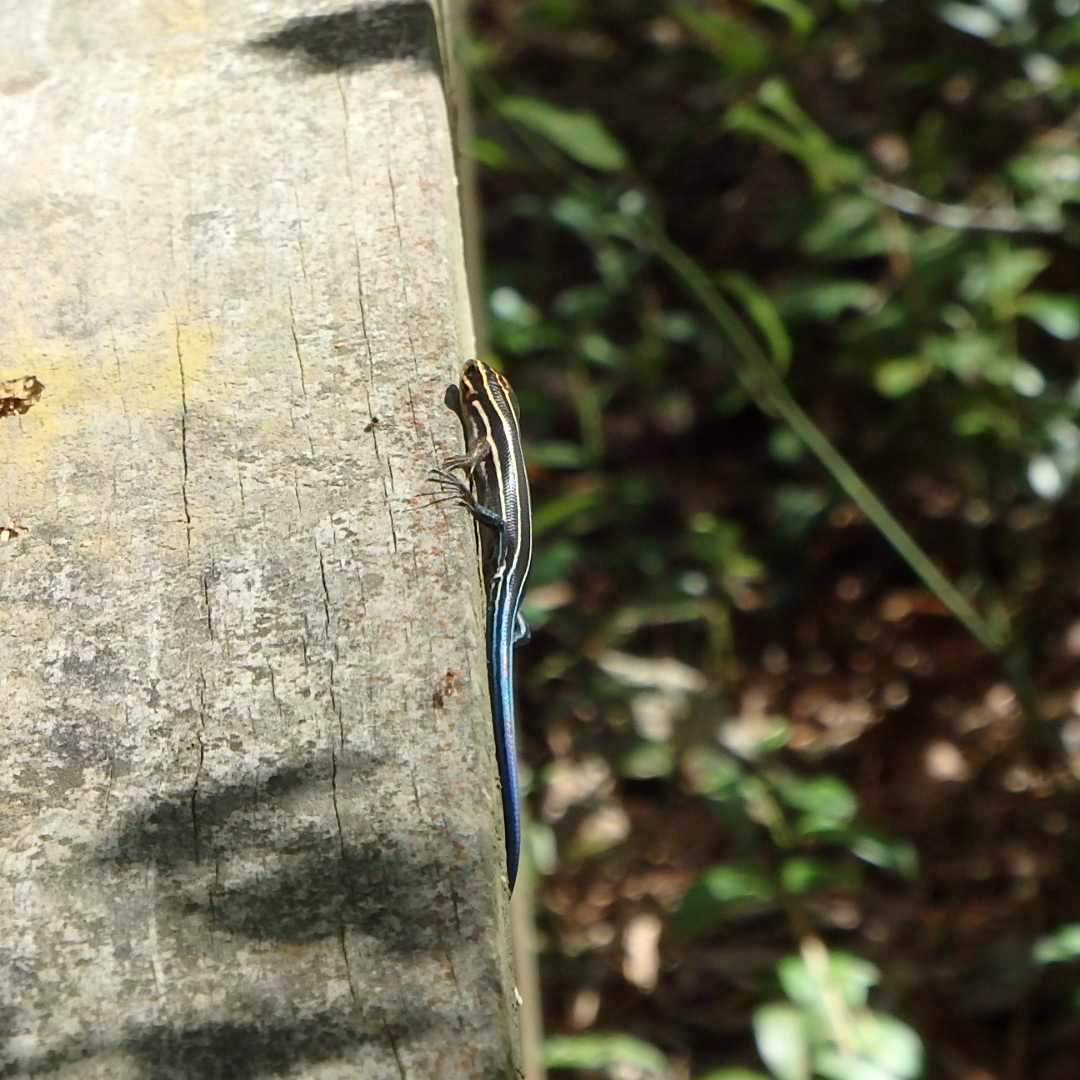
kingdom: Animalia
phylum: Chordata
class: Squamata
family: Scincidae
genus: Plestiodon
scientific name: Plestiodon laticeps
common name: Broadhead skink
